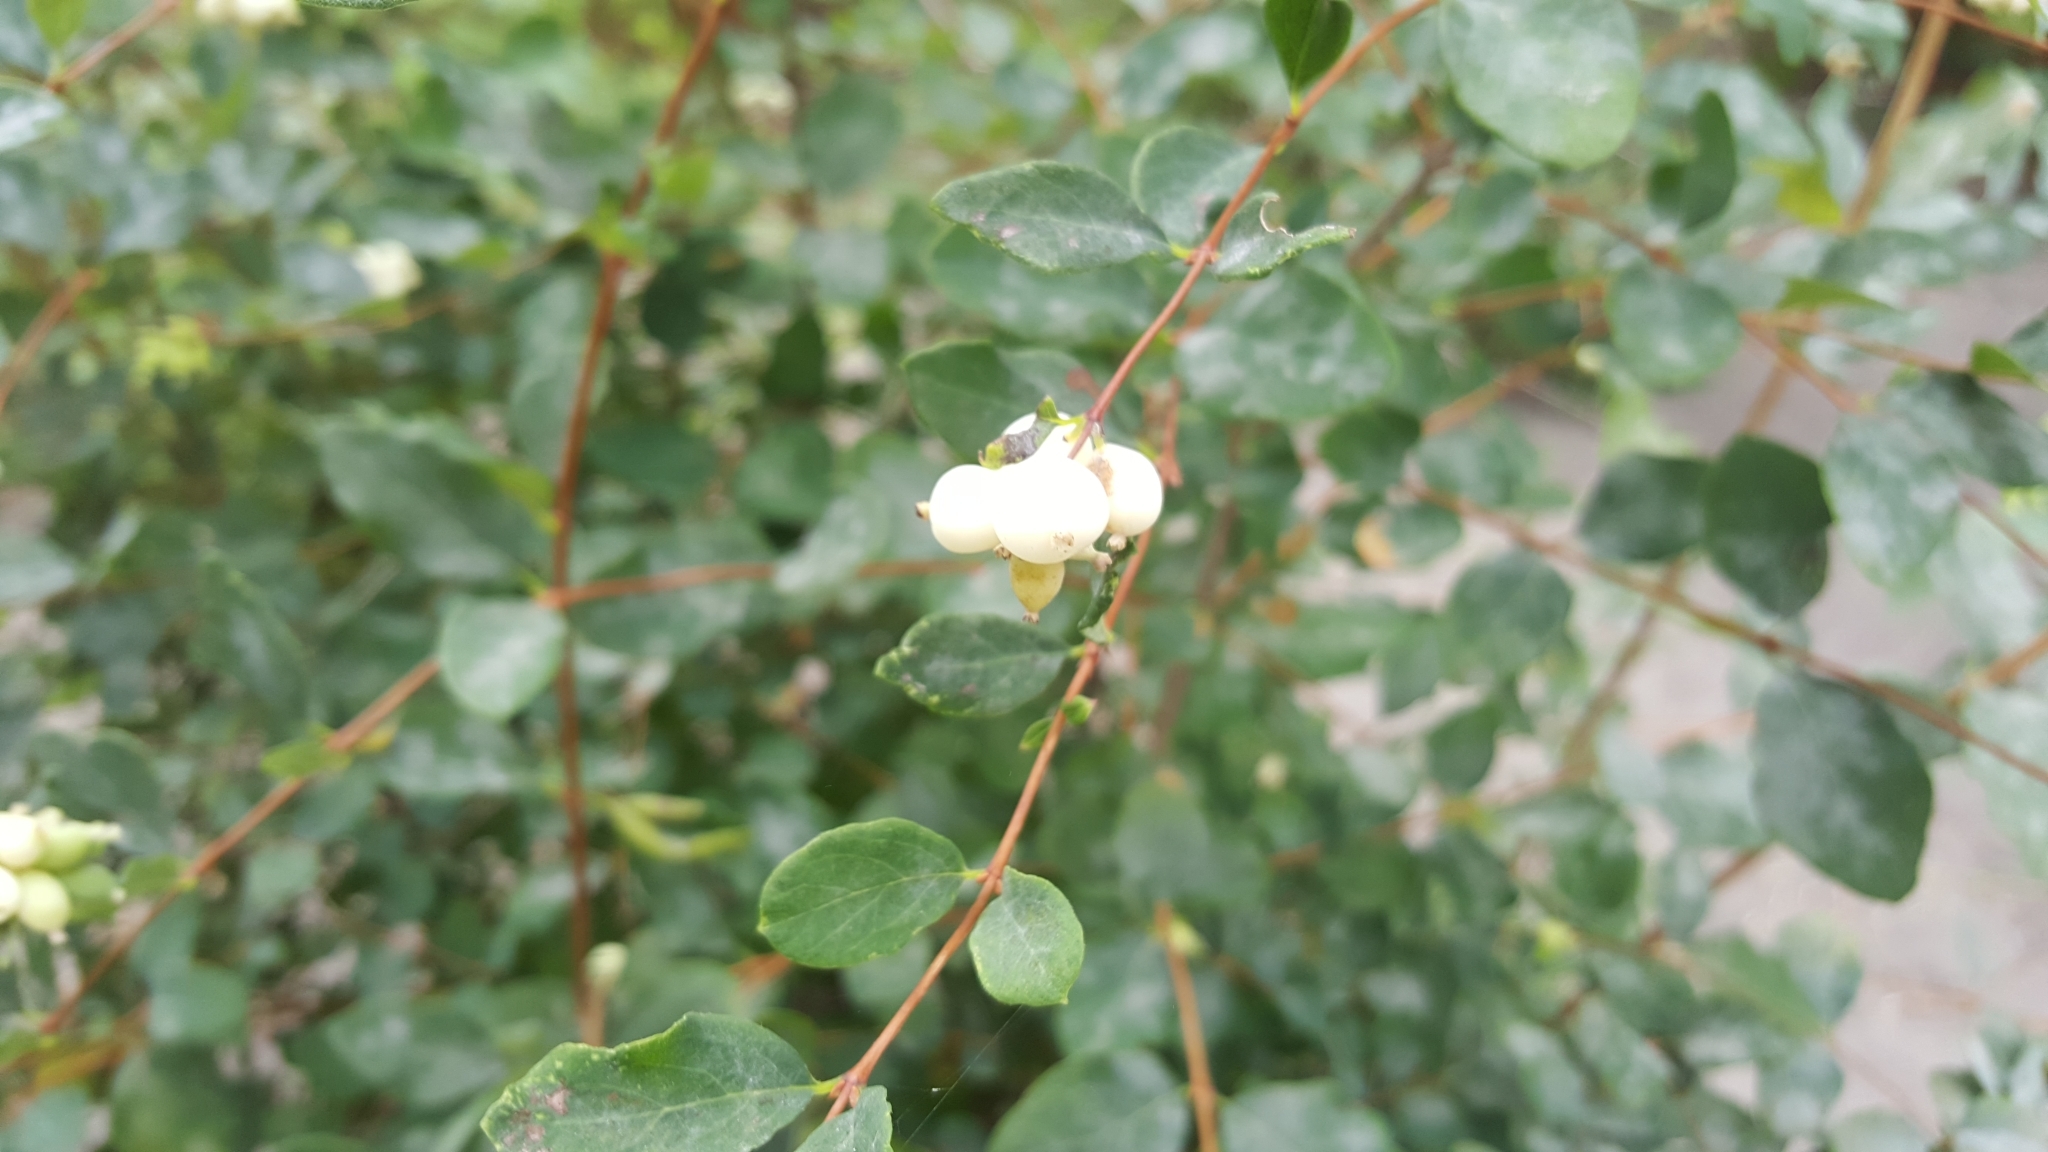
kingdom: Plantae
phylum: Tracheophyta
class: Magnoliopsida
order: Dipsacales
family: Caprifoliaceae
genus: Symphoricarpos
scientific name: Symphoricarpos albus
